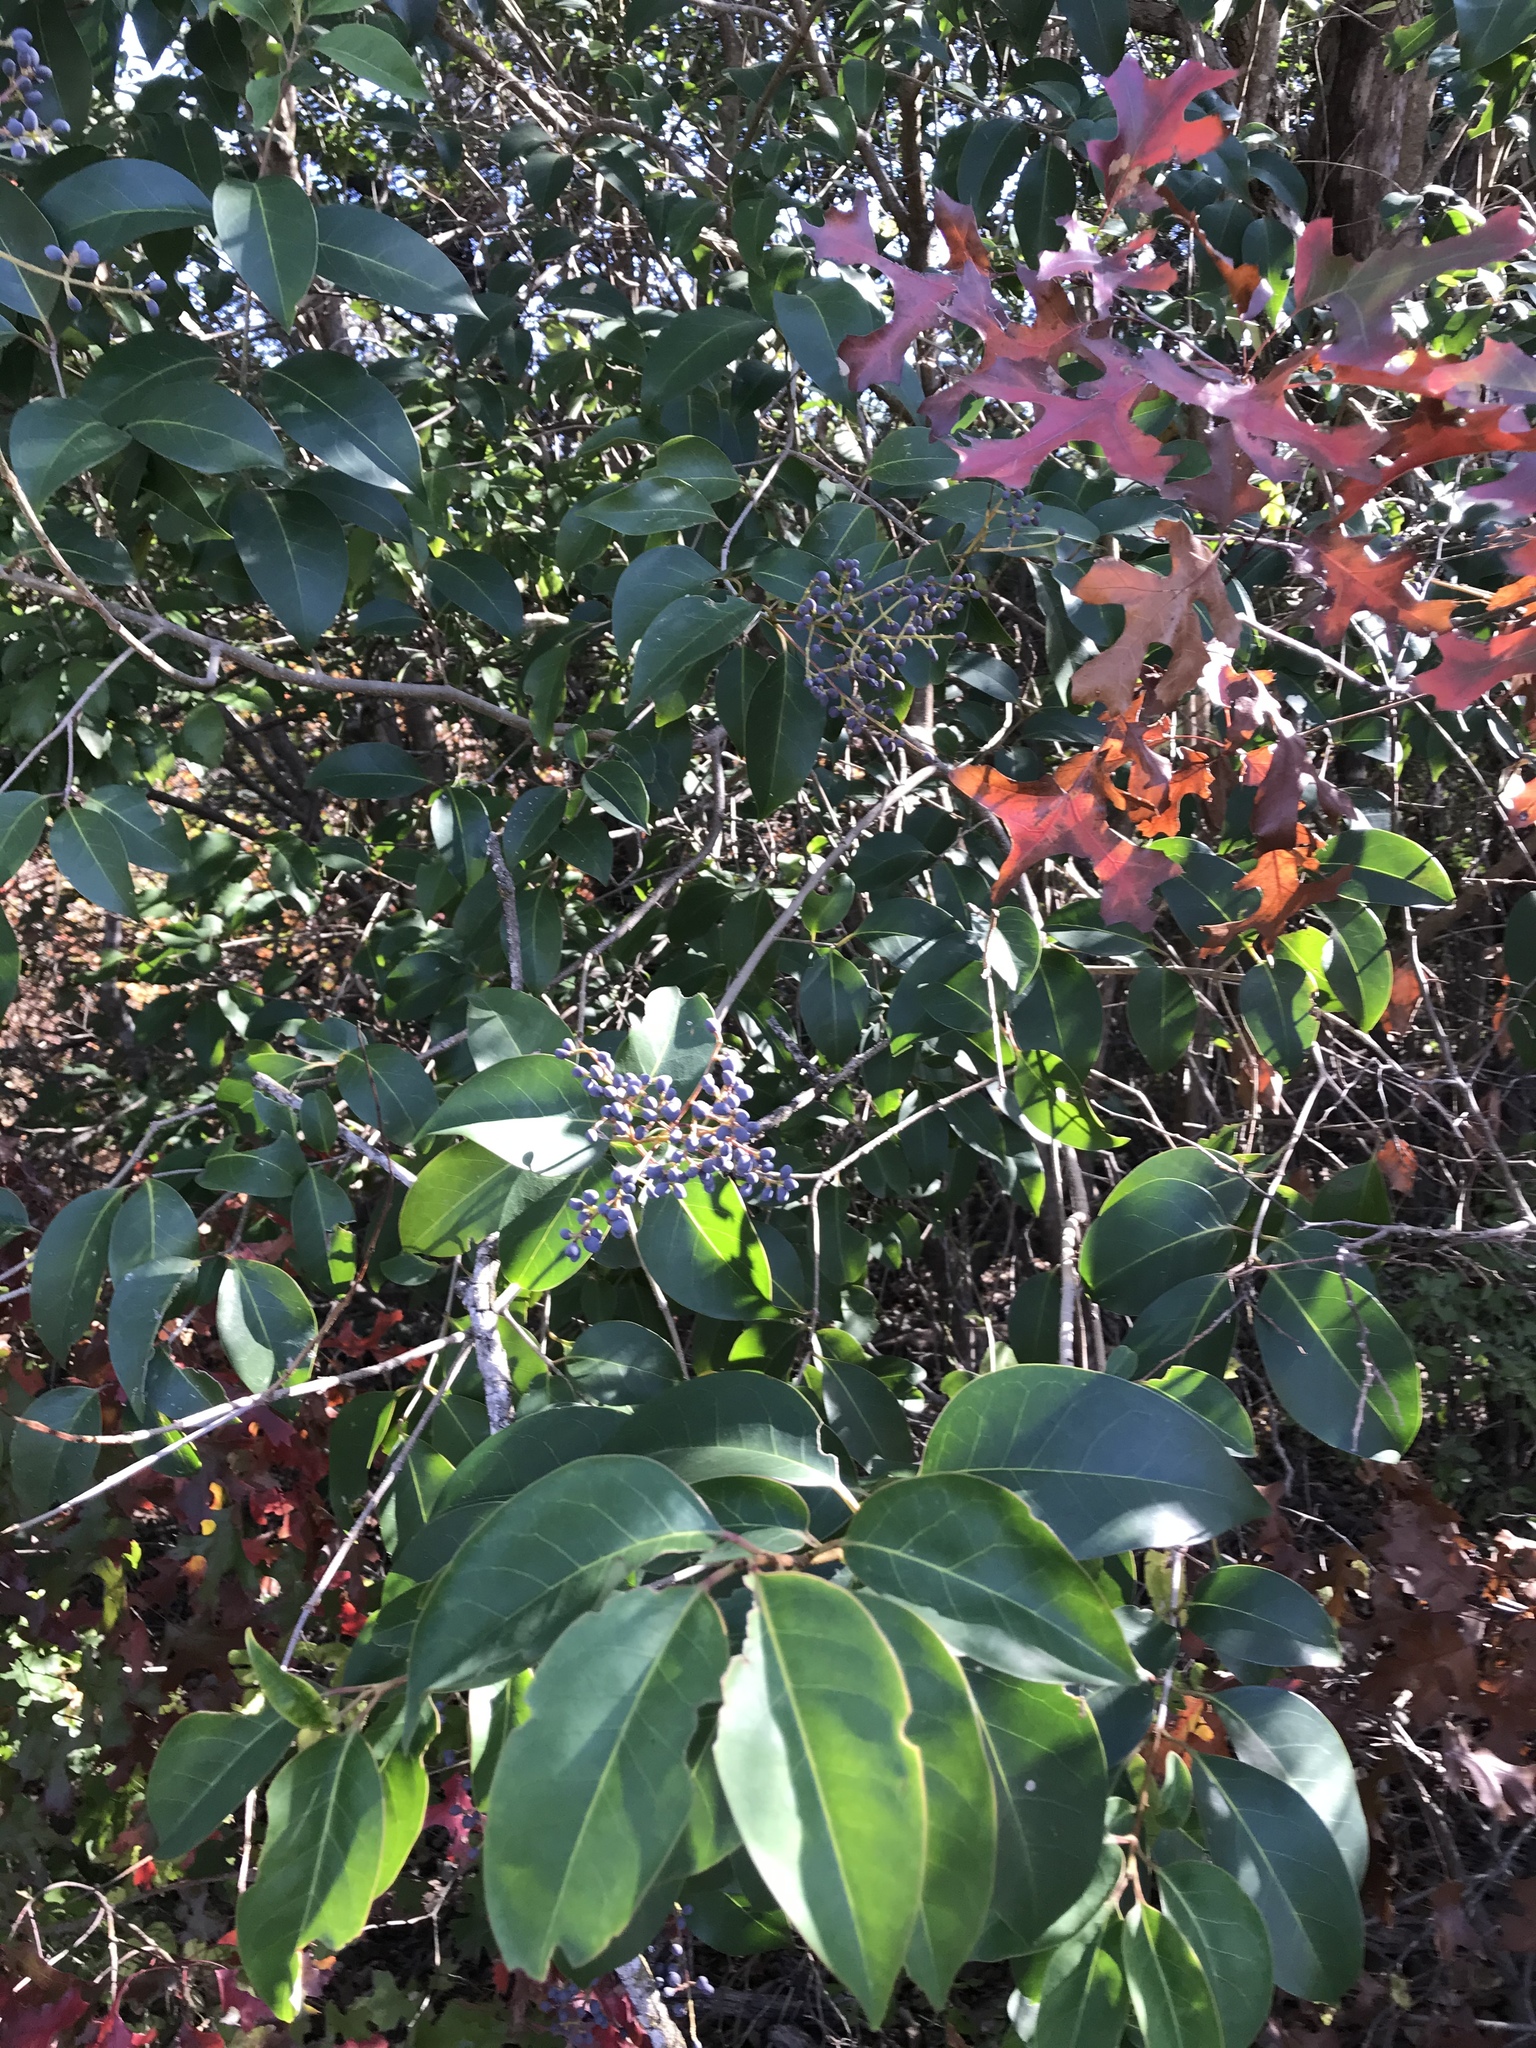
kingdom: Plantae
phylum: Tracheophyta
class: Magnoliopsida
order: Lamiales
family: Oleaceae
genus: Ligustrum
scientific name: Ligustrum lucidum
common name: Glossy privet
